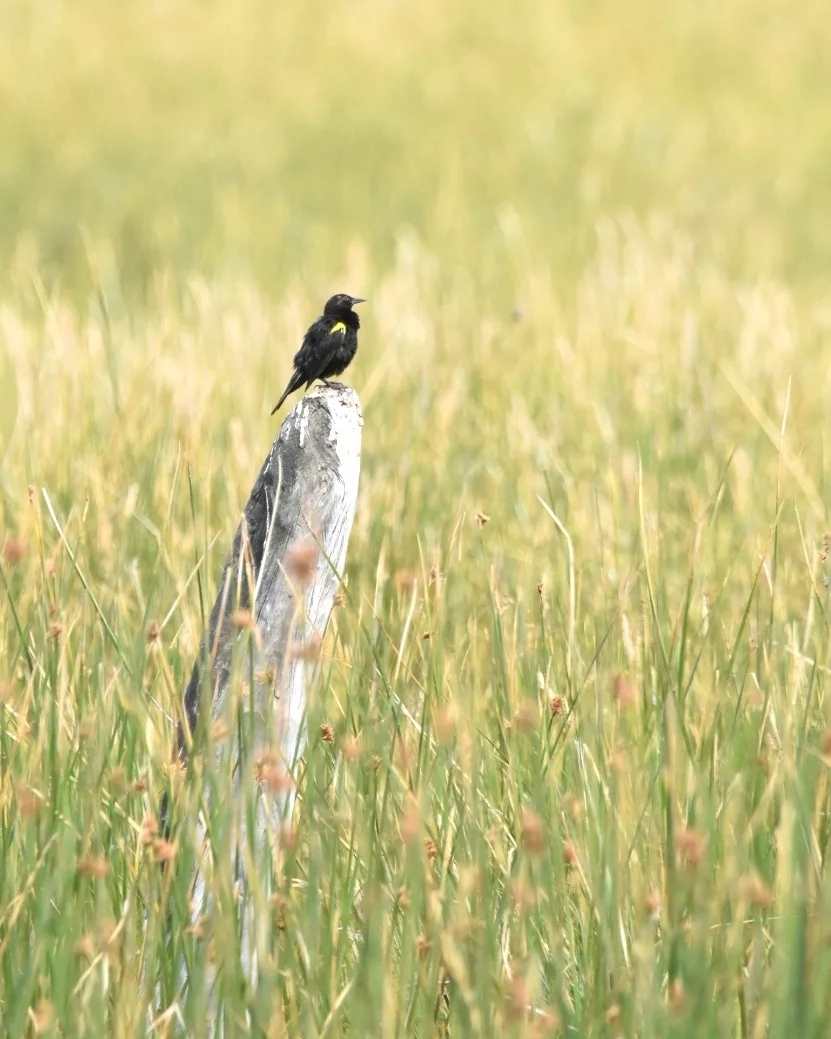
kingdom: Animalia
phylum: Chordata
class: Aves
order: Passeriformes
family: Icteridae
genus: Agelasticus
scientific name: Agelasticus thilius
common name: Yellow-winged blackbird
